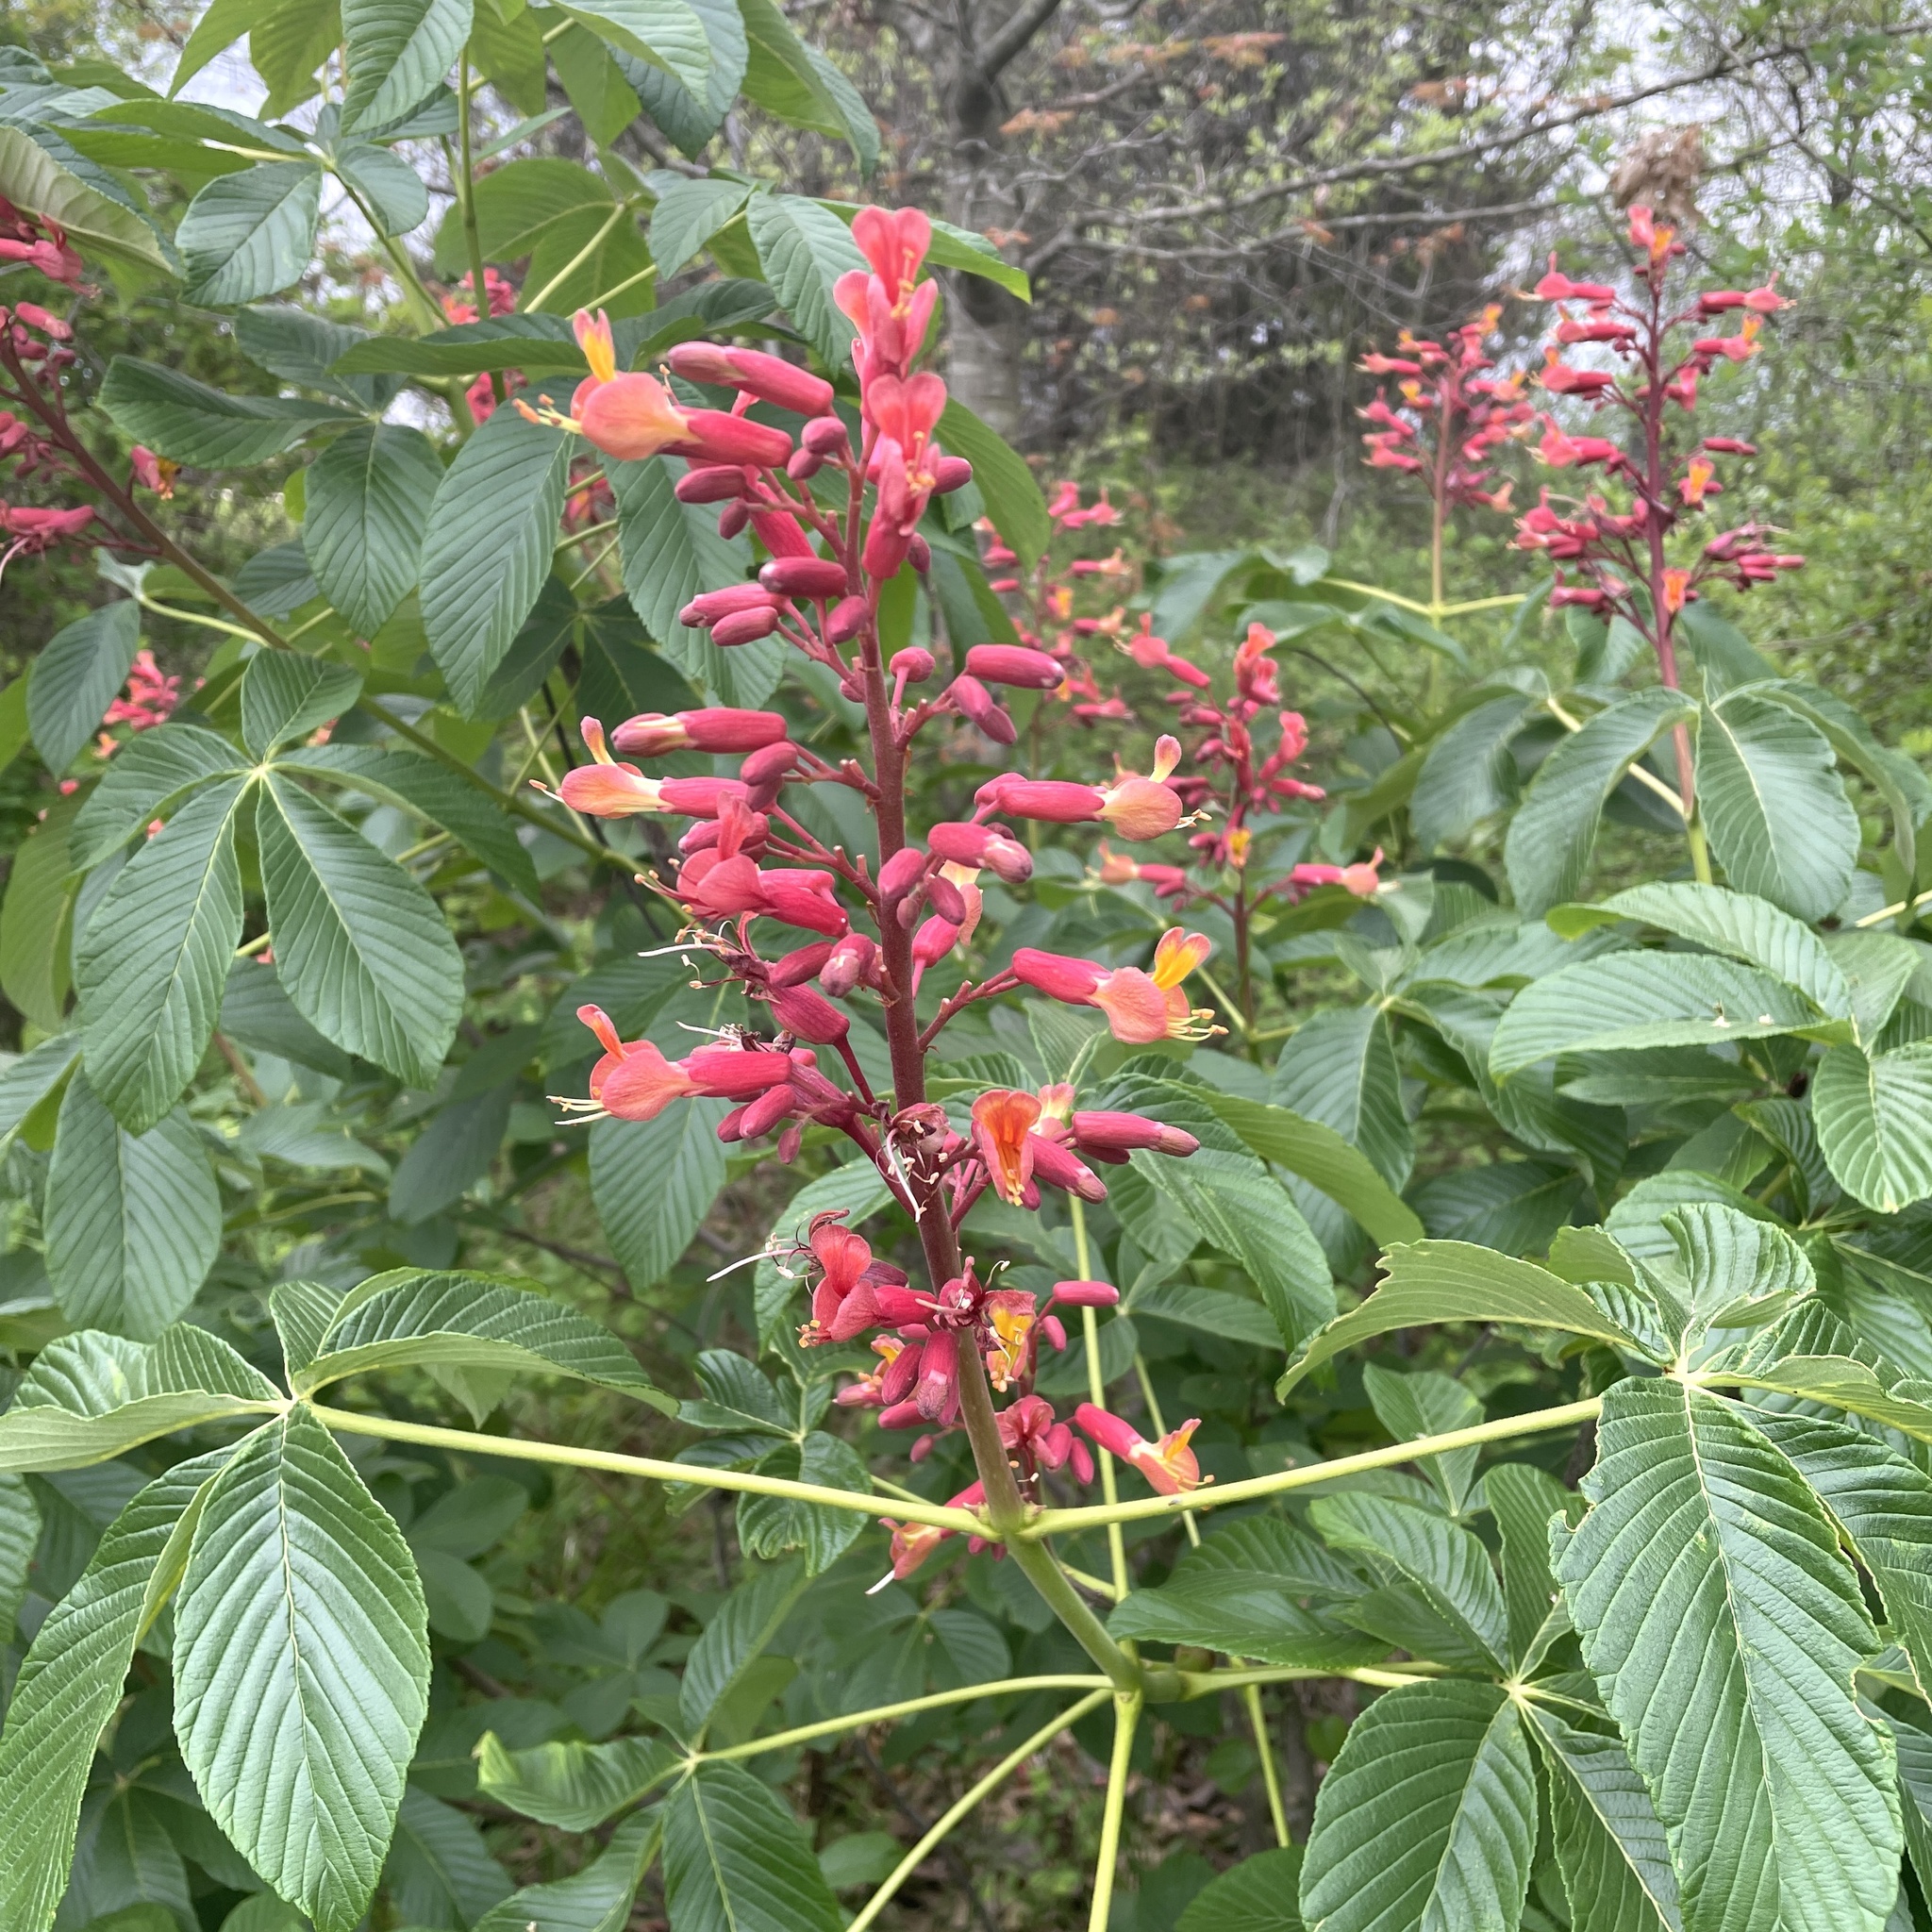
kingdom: Plantae
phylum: Tracheophyta
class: Magnoliopsida
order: Sapindales
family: Sapindaceae
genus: Aesculus
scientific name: Aesculus pavia
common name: Red buckeye
